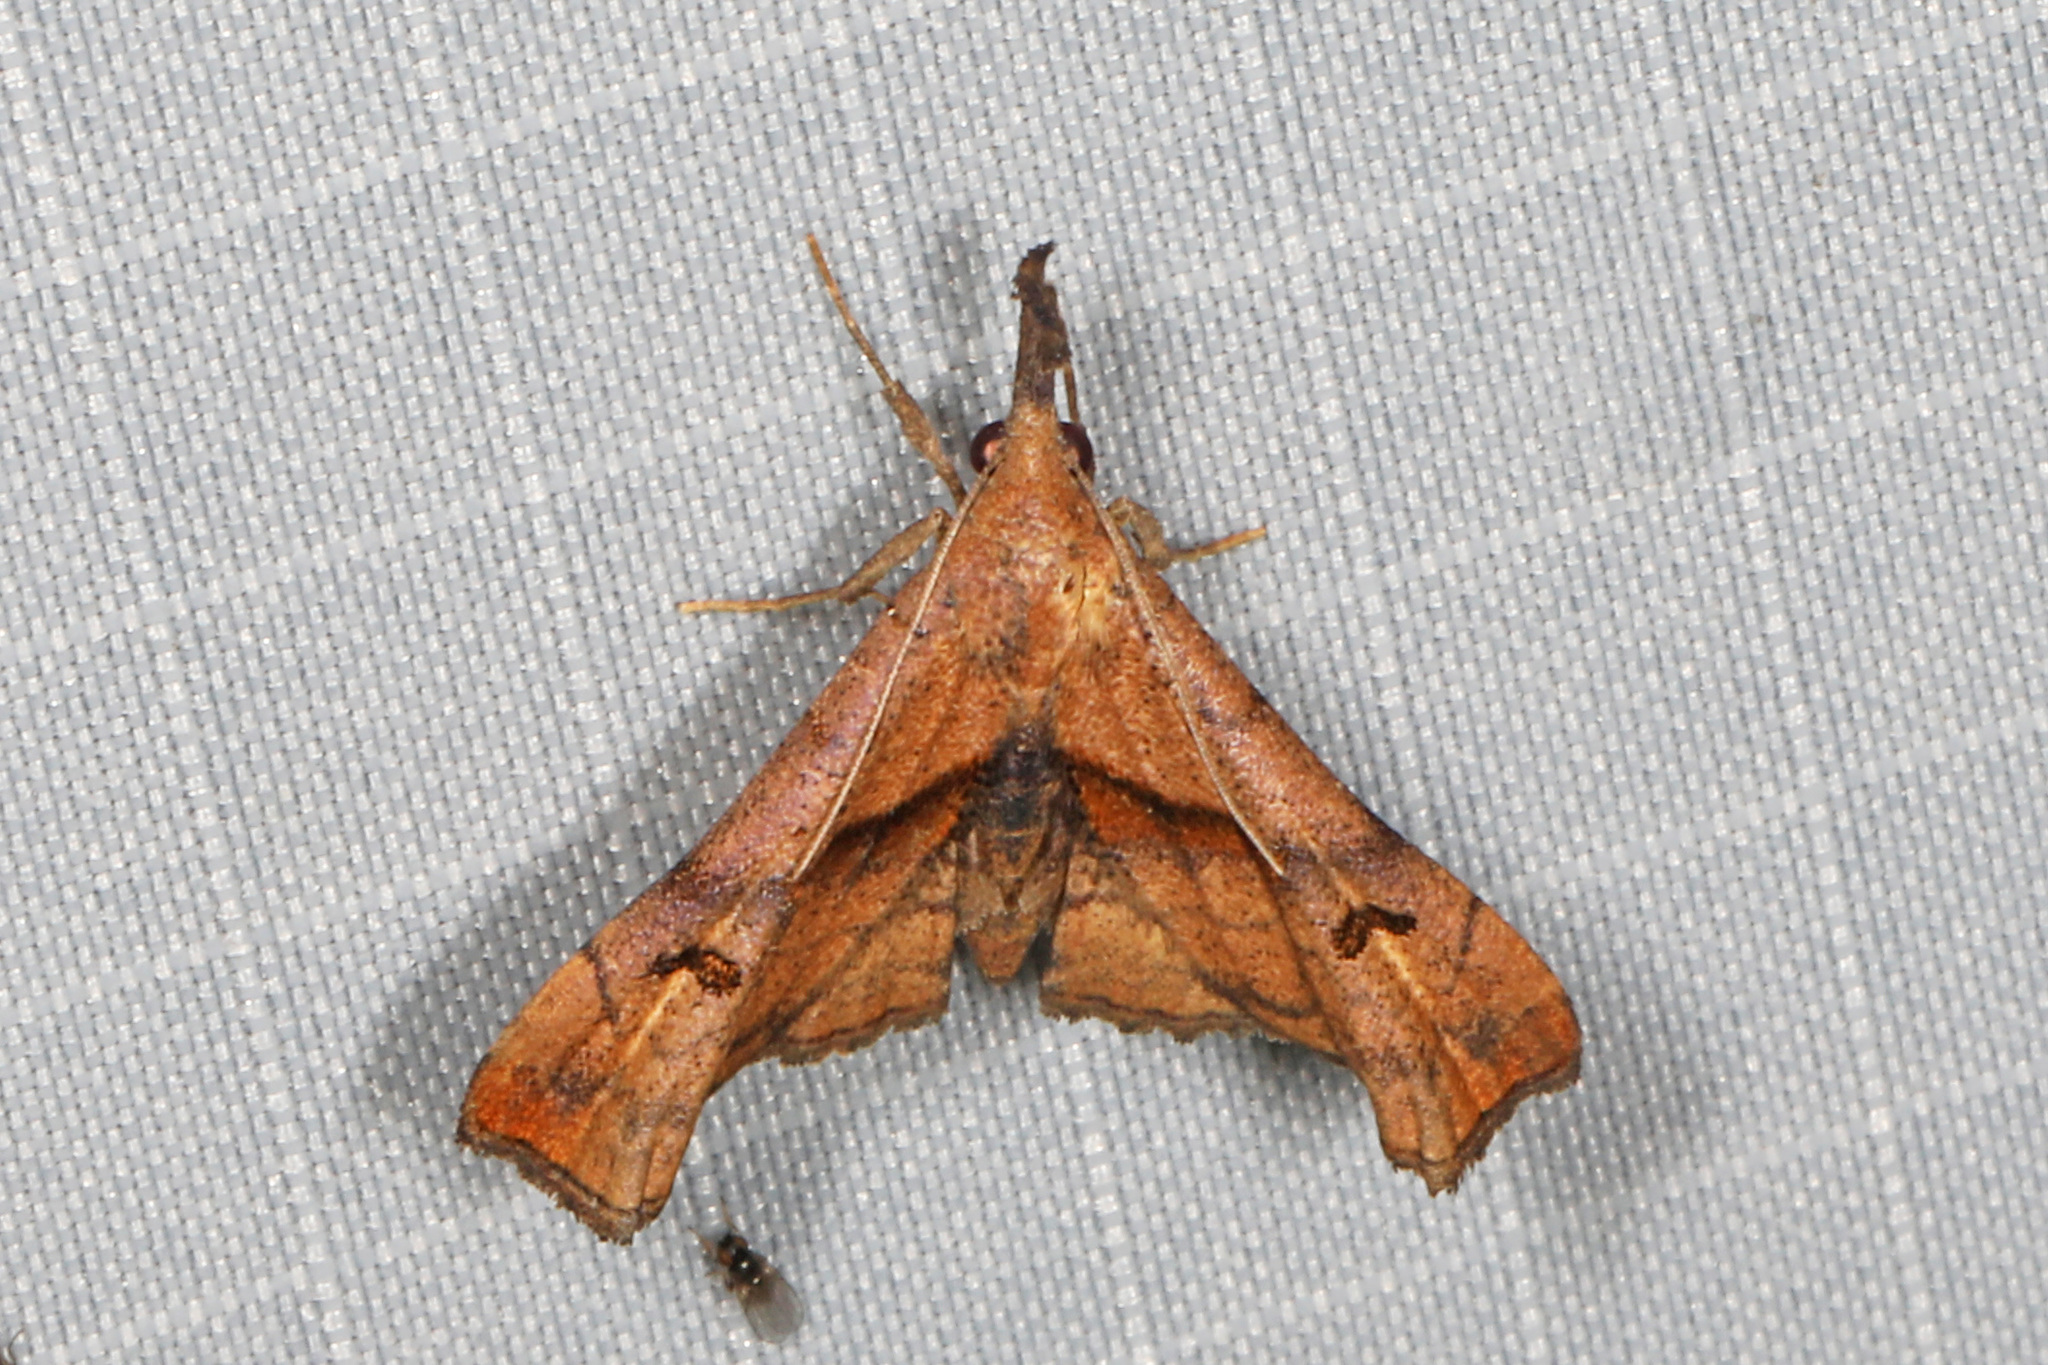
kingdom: Animalia
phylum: Arthropoda
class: Insecta
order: Lepidoptera
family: Erebidae
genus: Palthis
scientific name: Palthis angulalis
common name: Dark-spotted palthis moth
